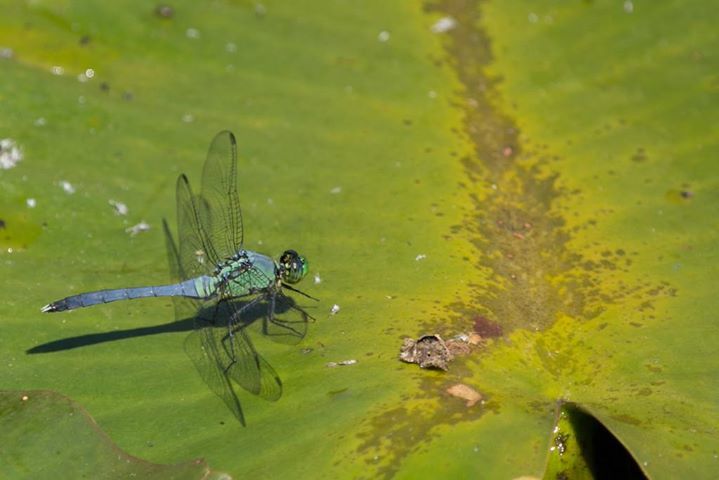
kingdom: Animalia
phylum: Arthropoda
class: Insecta
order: Odonata
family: Libellulidae
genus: Erythemis
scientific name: Erythemis simplicicollis
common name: Eastern pondhawk
